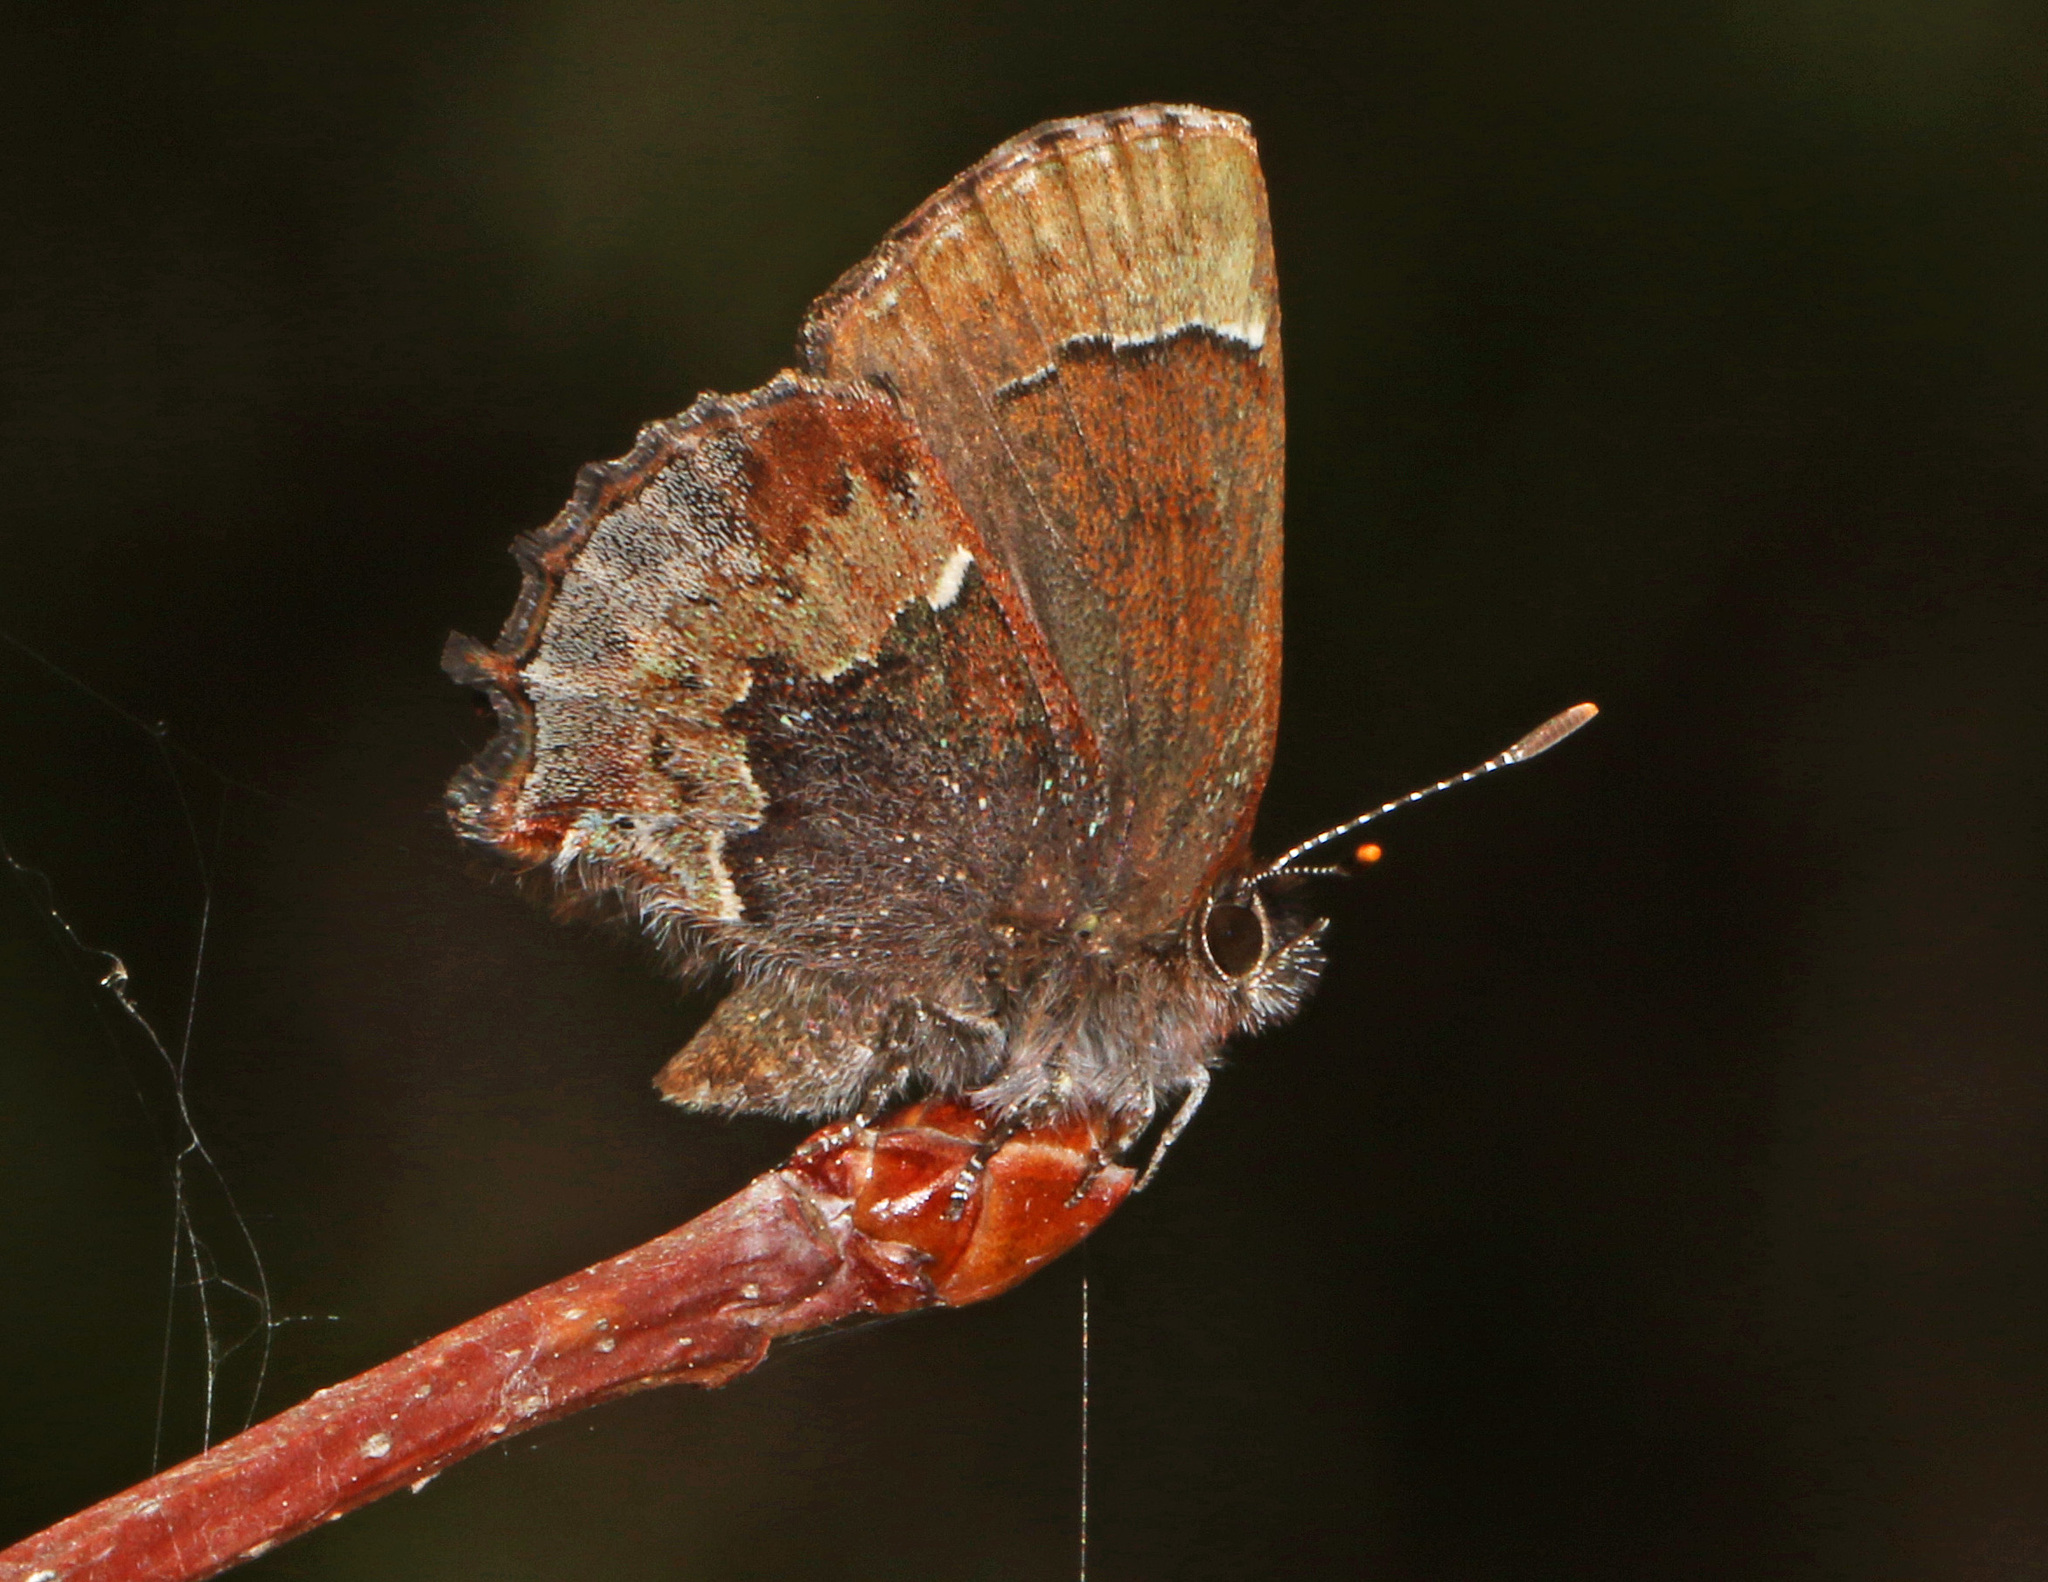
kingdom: Animalia
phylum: Arthropoda
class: Insecta
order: Lepidoptera
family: Lycaenidae
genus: Incisalia
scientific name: Incisalia henrici
